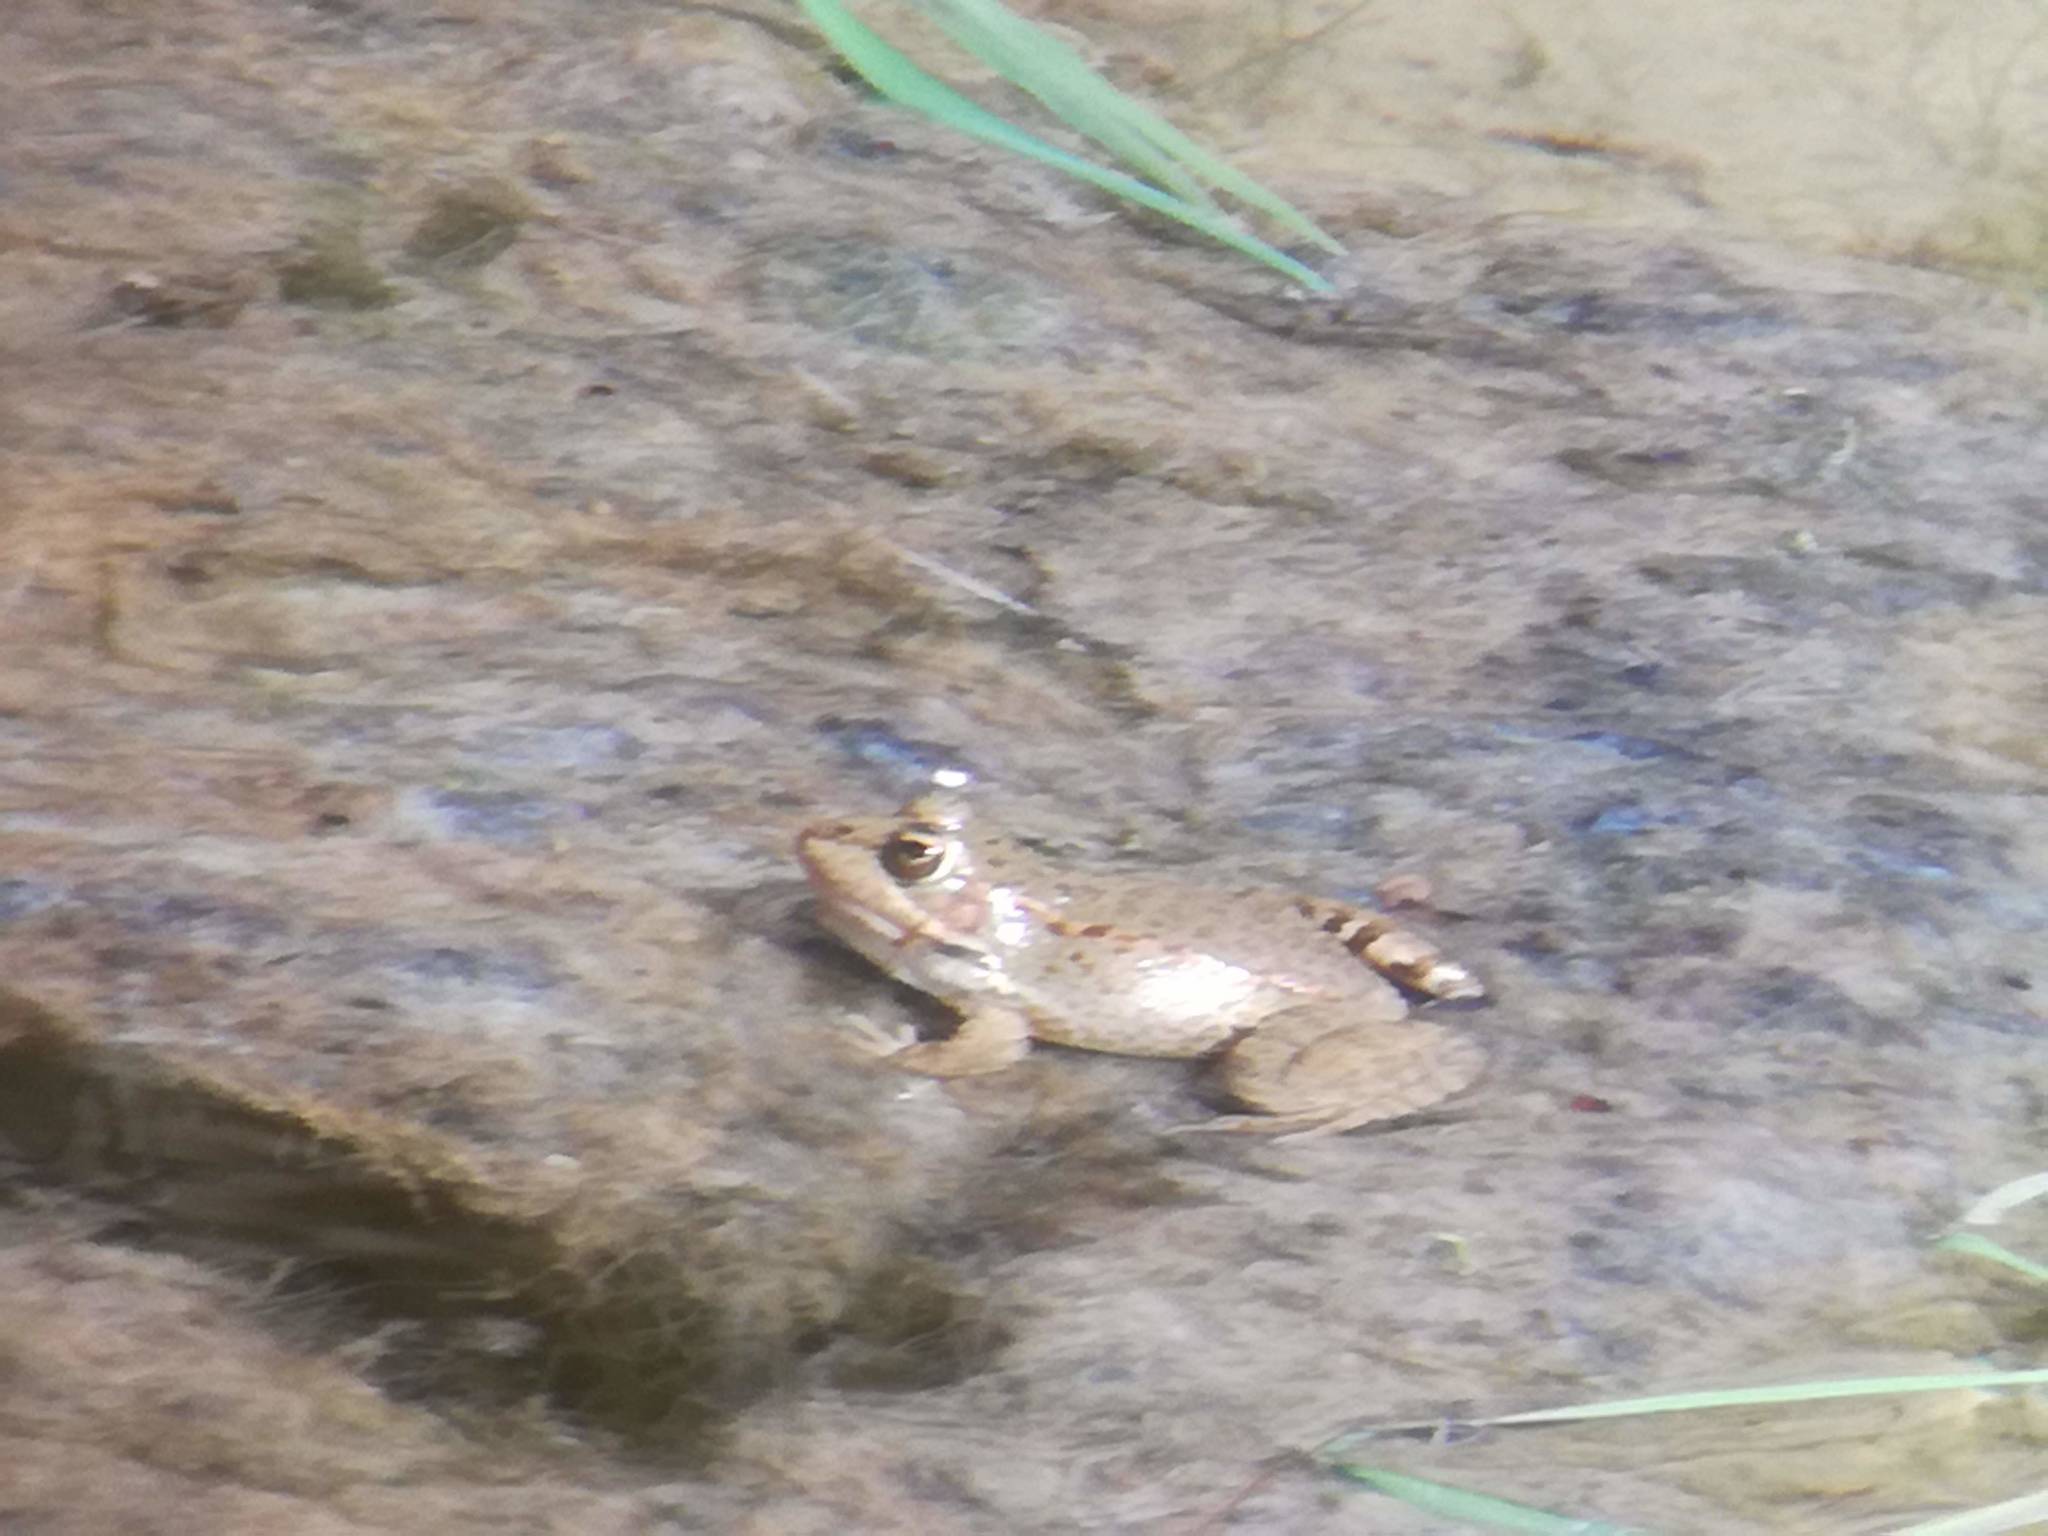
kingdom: Animalia
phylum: Chordata
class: Amphibia
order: Anura
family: Ranidae
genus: Pelophylax
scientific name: Pelophylax perezi
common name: Perez's frog
